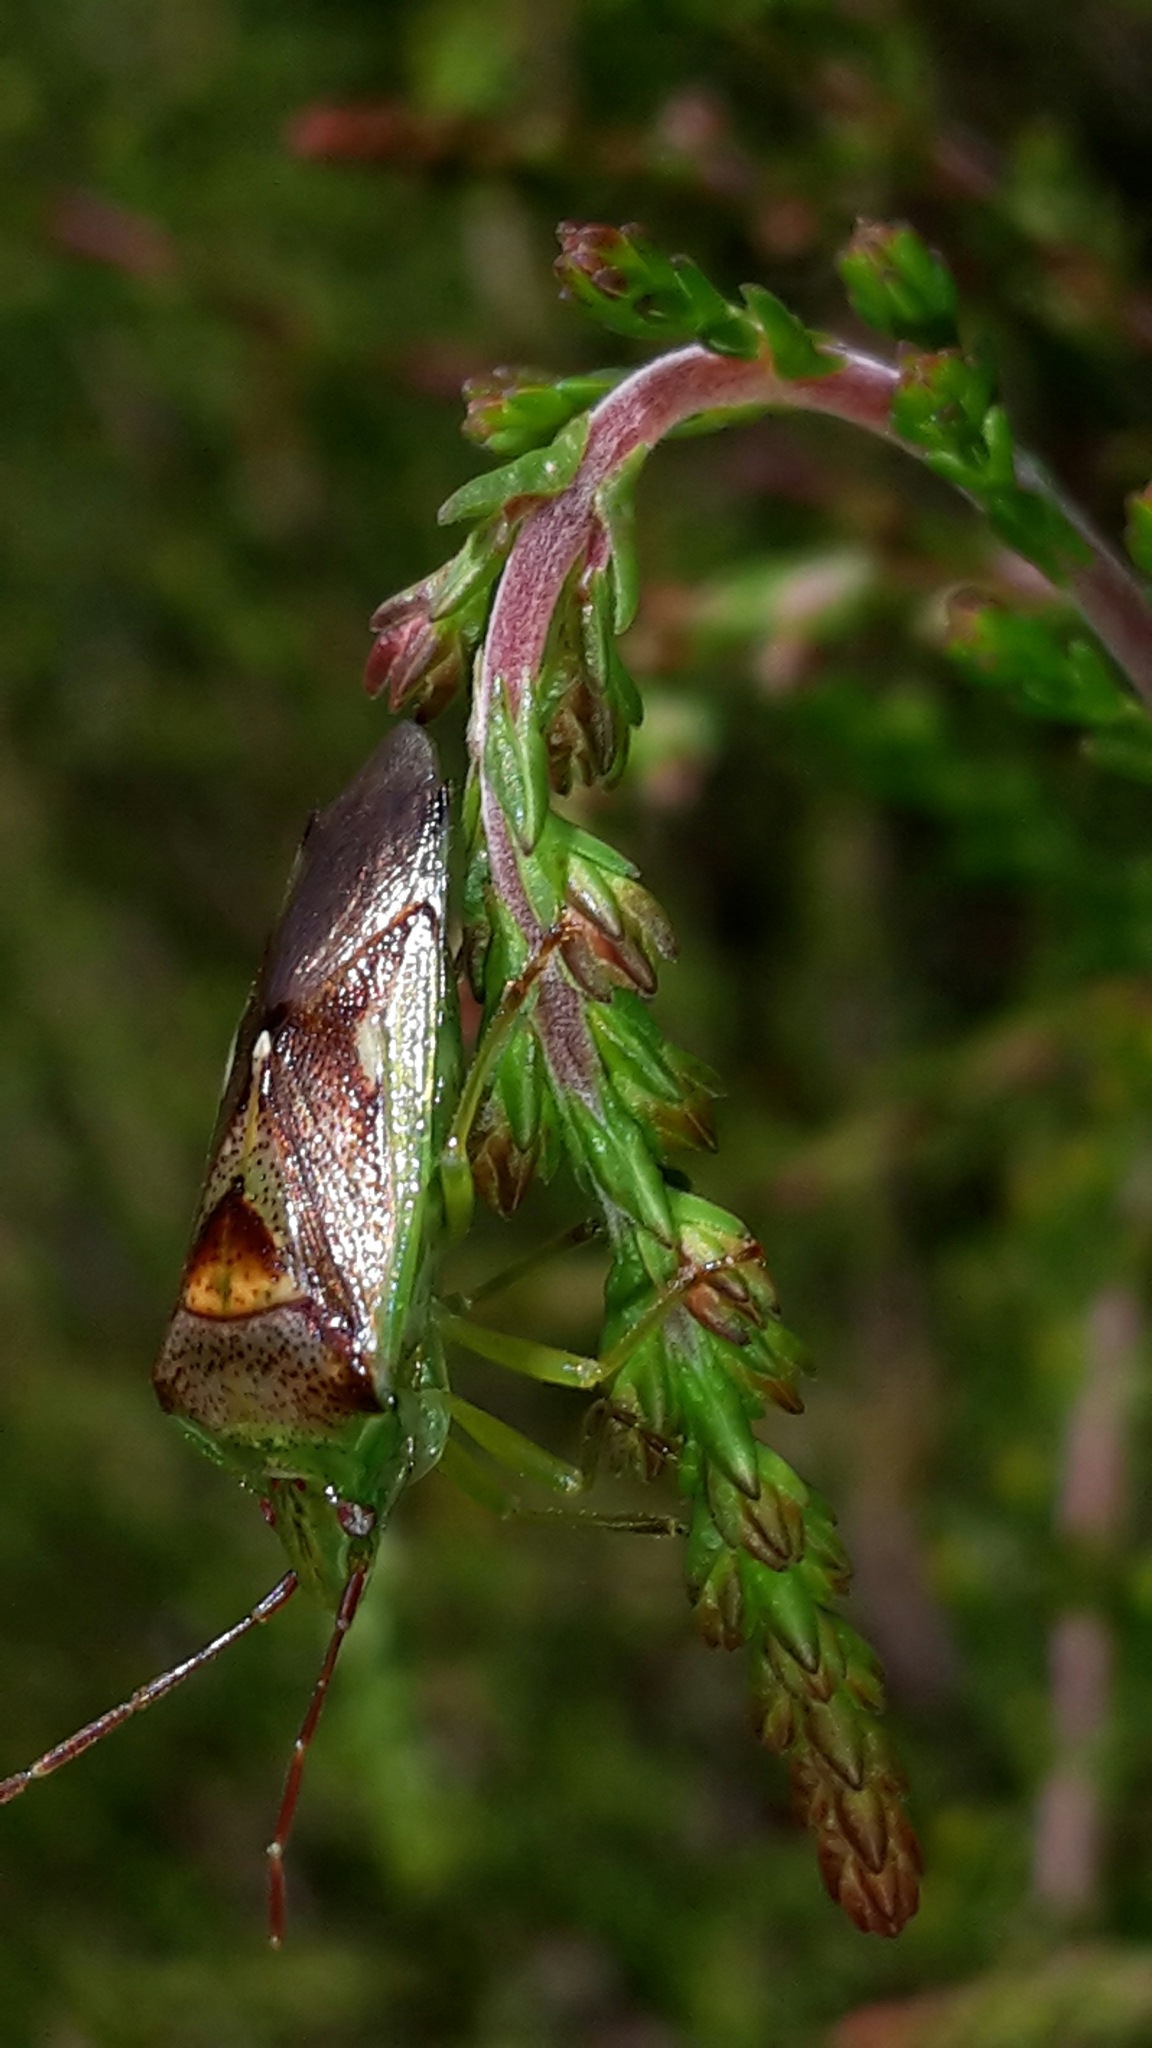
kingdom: Animalia
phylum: Arthropoda
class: Insecta
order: Hemiptera
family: Acanthosomatidae
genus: Oncacontias
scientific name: Oncacontias vittatus
